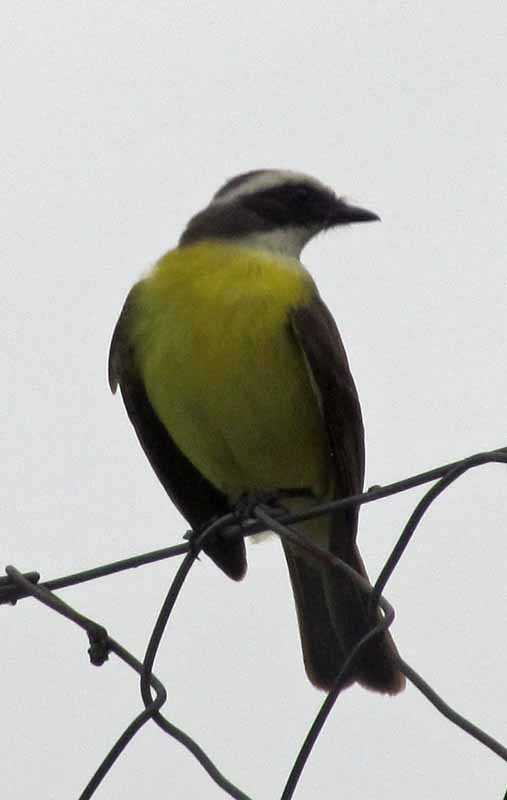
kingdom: Animalia
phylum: Chordata
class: Aves
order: Passeriformes
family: Tyrannidae
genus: Myiozetetes
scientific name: Myiozetetes similis
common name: Social flycatcher
